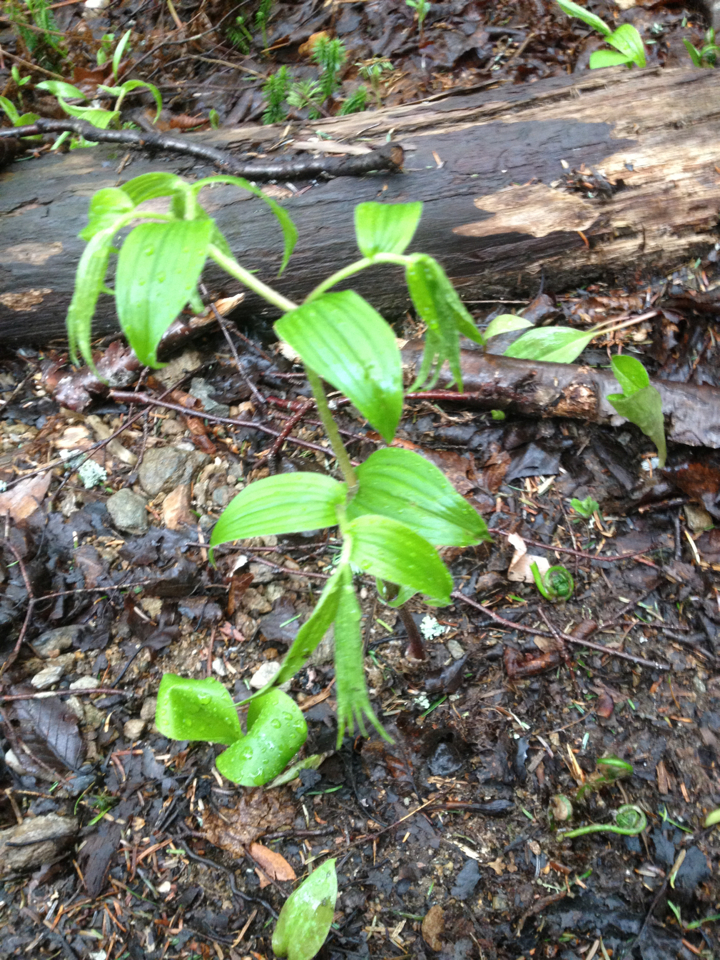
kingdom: Plantae
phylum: Tracheophyta
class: Liliopsida
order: Liliales
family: Liliaceae
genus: Streptopus
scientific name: Streptopus lanceolatus
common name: Rose mandarin
